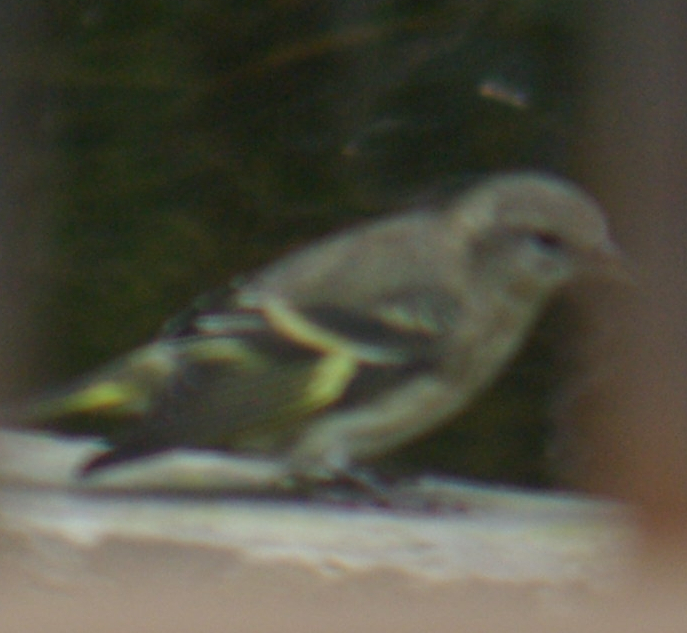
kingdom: Animalia
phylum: Chordata
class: Aves
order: Passeriformes
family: Fringillidae
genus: Spinus
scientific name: Spinus tristis
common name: American goldfinch
